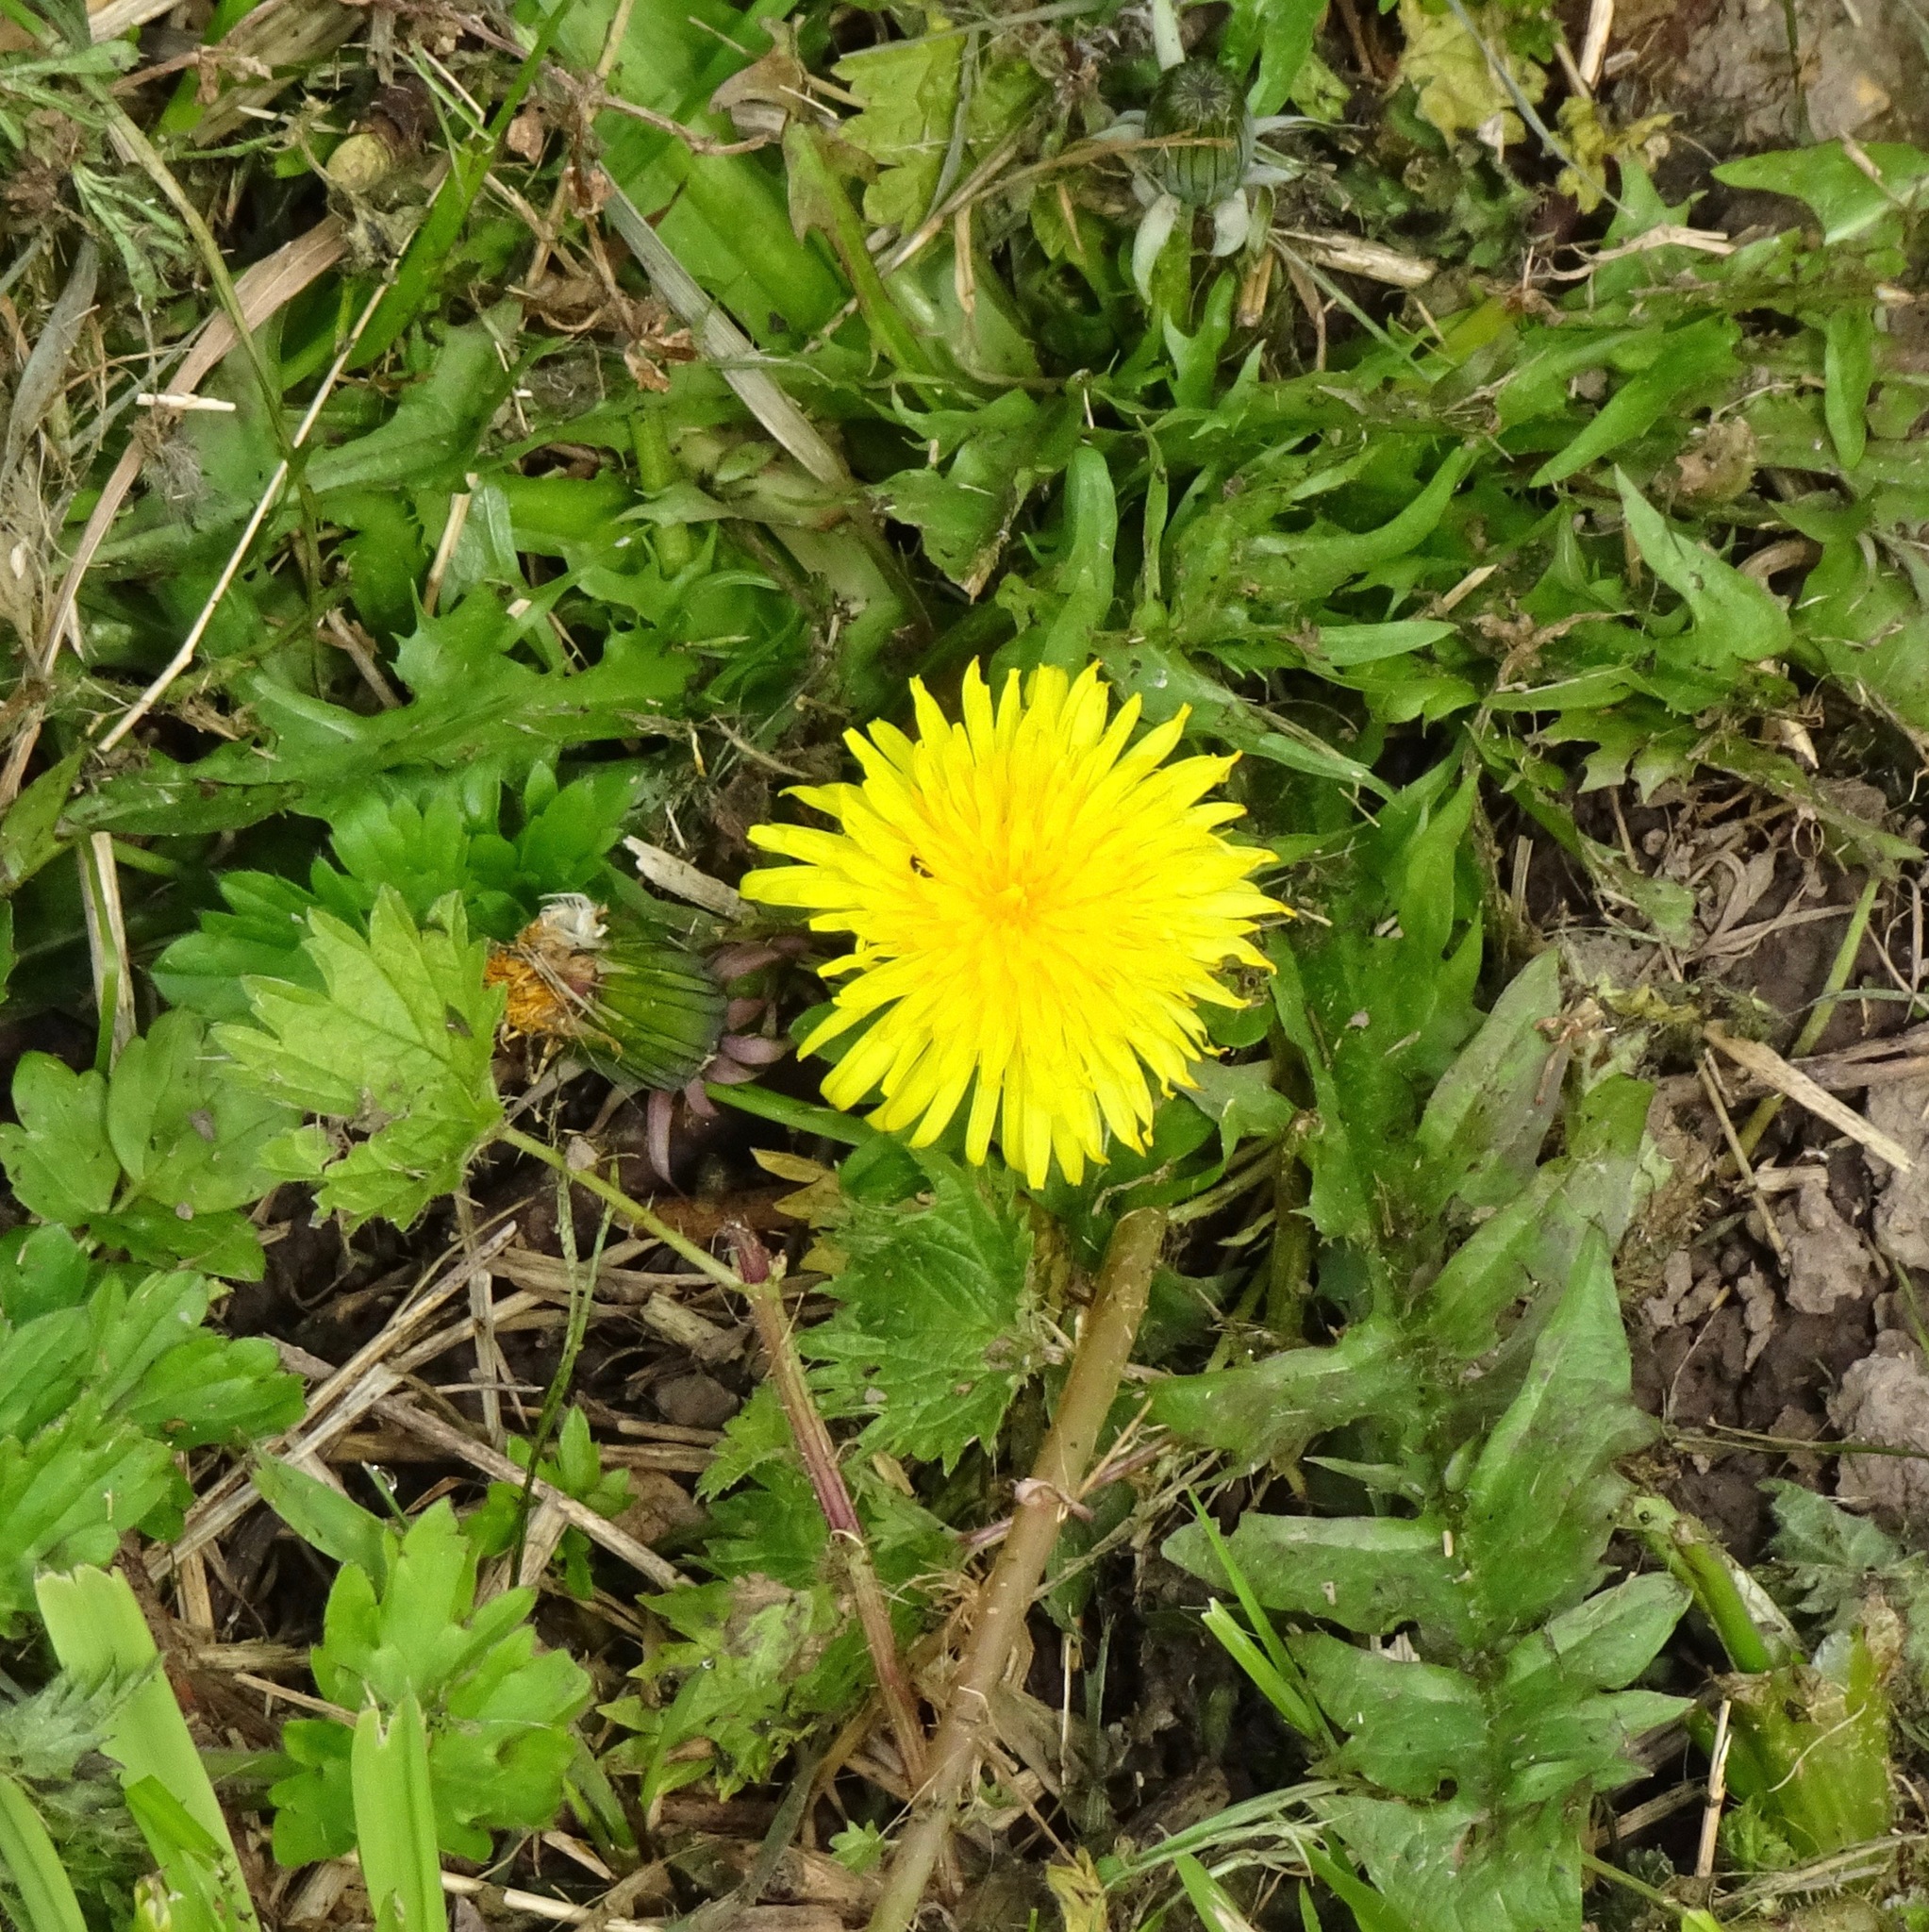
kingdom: Plantae
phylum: Tracheophyta
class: Magnoliopsida
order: Asterales
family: Asteraceae
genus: Taraxacum
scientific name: Taraxacum officinale
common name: Common dandelion
